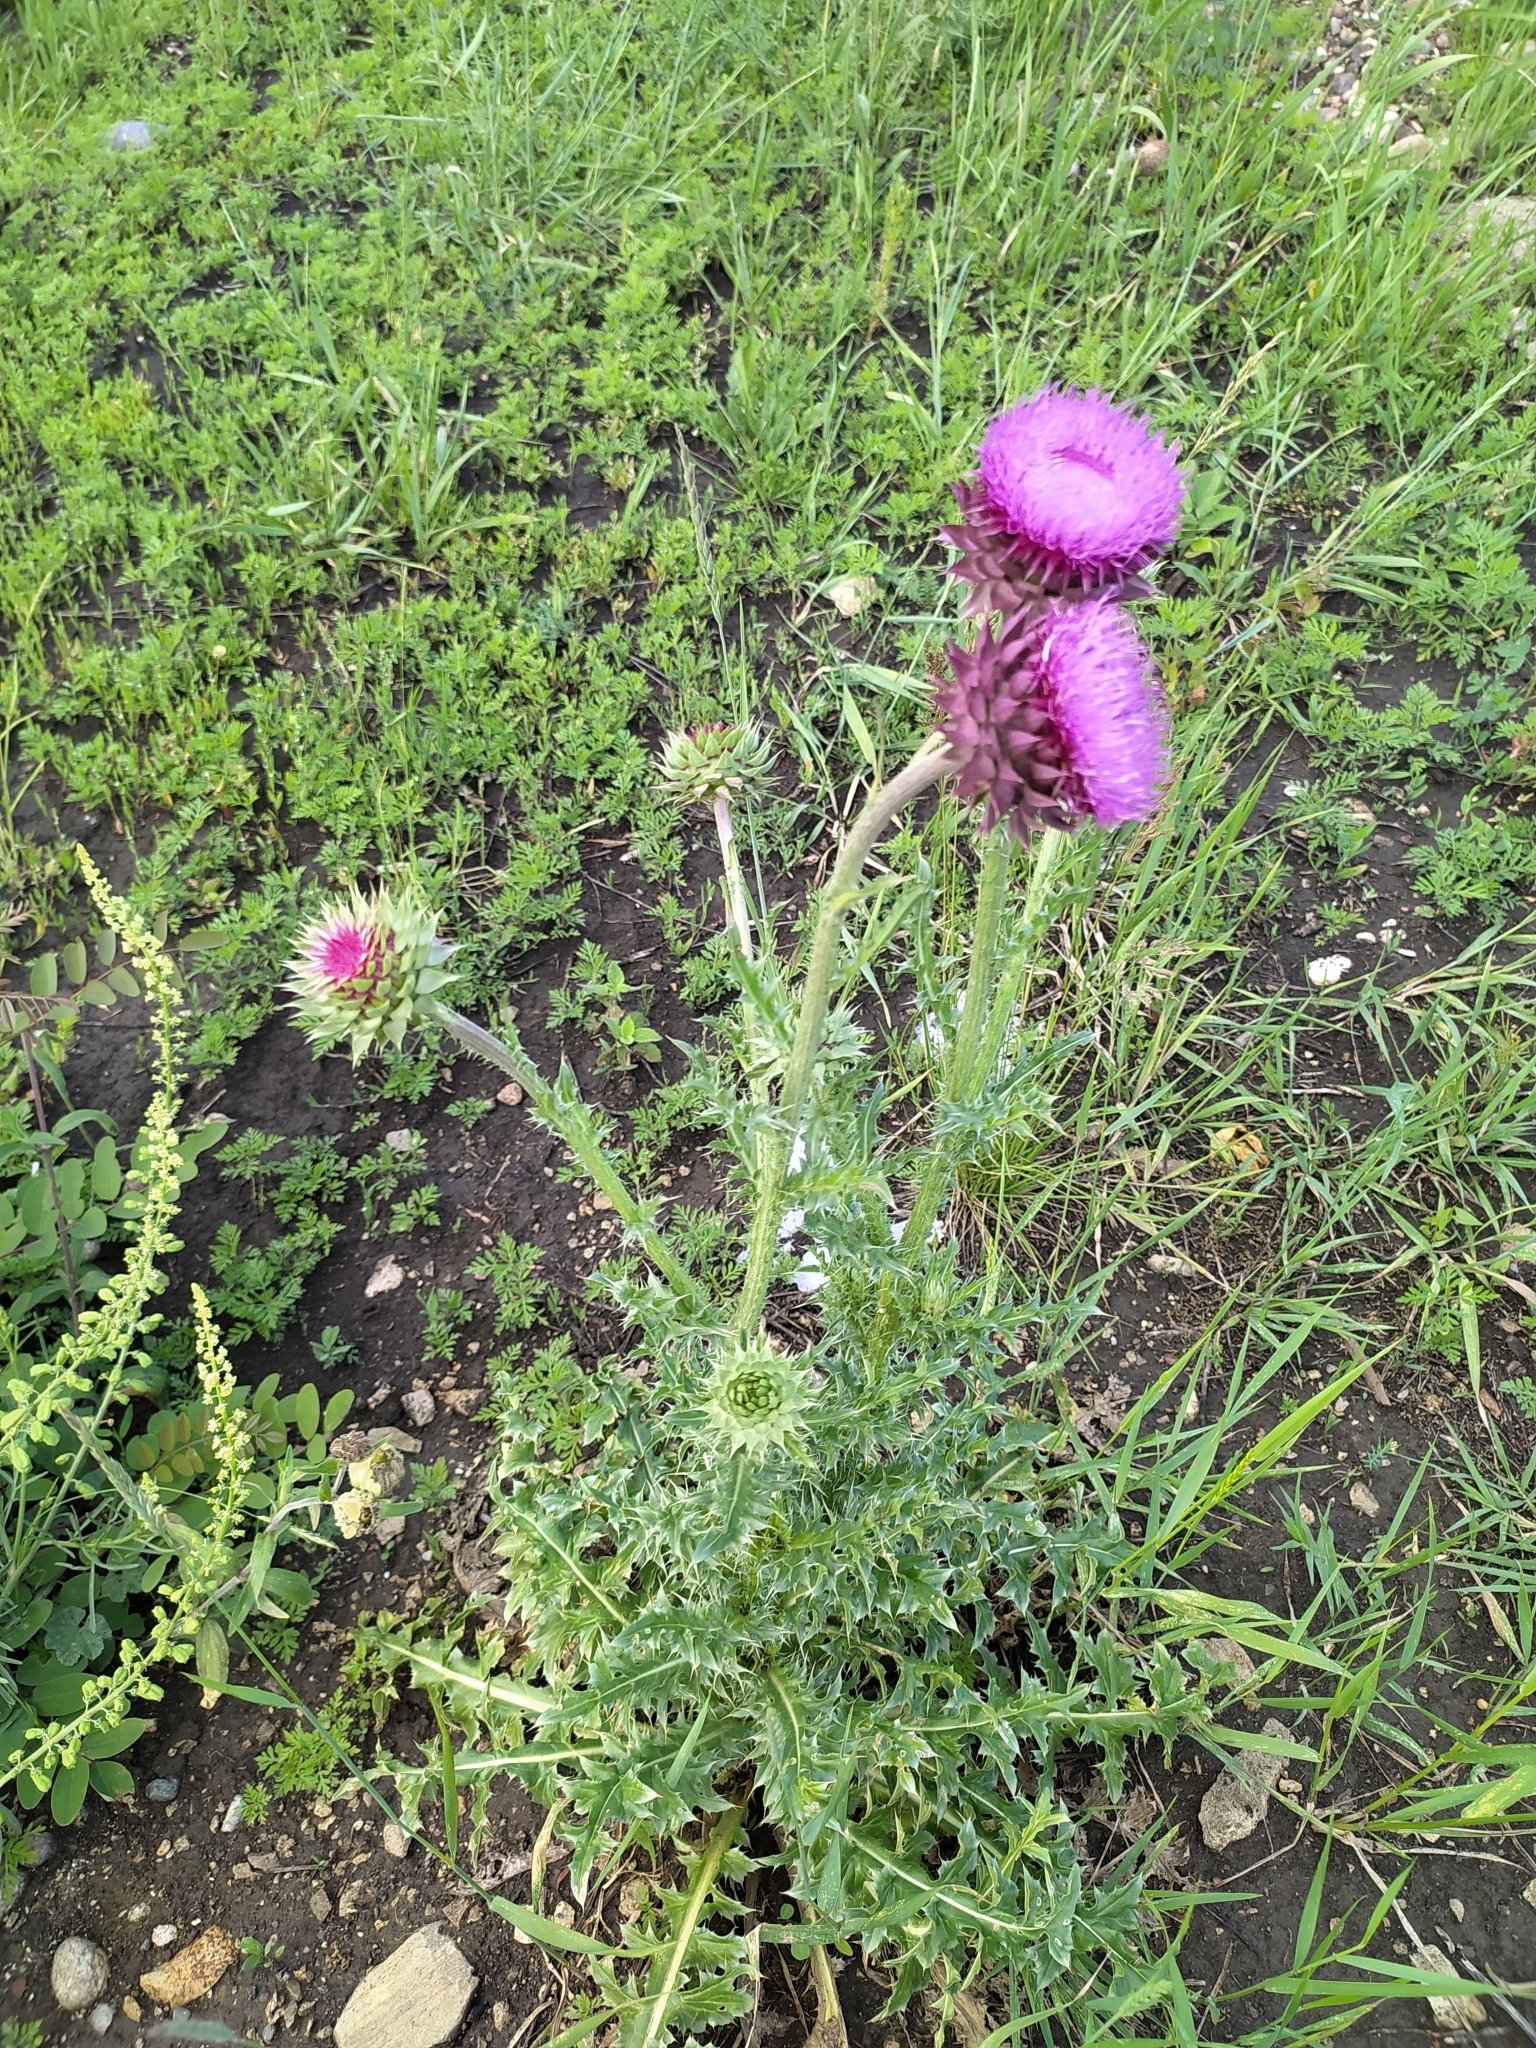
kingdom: Plantae
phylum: Tracheophyta
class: Magnoliopsida
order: Asterales
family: Asteraceae
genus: Carduus
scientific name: Carduus nutans
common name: Musk thistle
